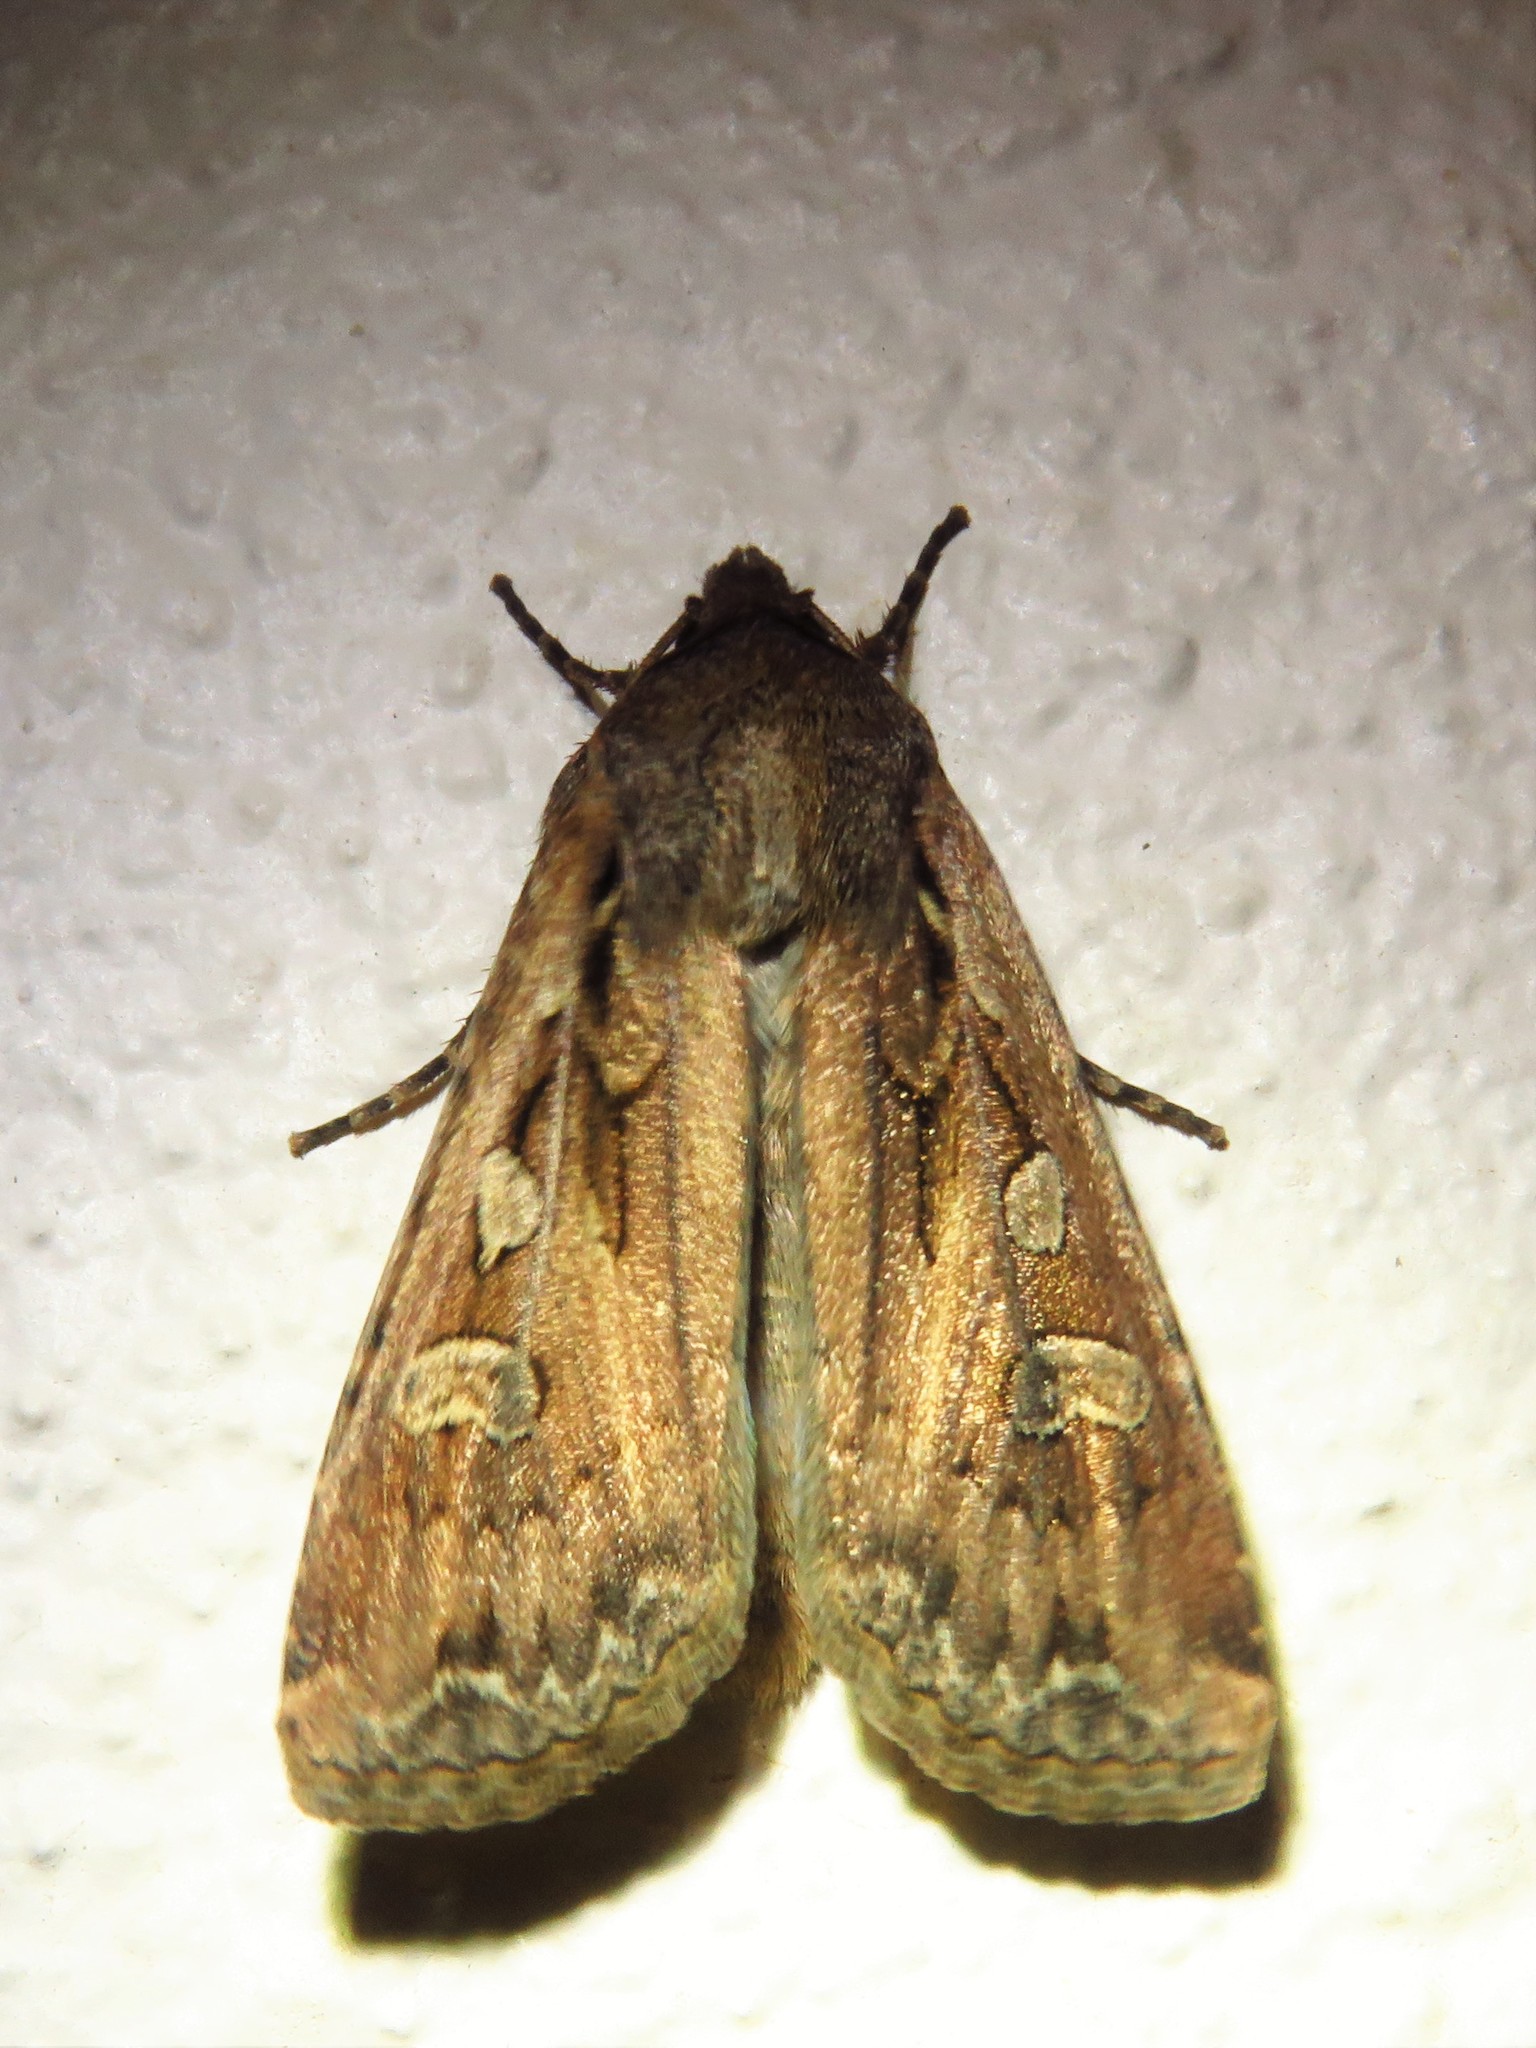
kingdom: Animalia
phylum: Arthropoda
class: Insecta
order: Lepidoptera
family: Noctuidae
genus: Euxoa
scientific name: Euxoa auxiliaris
